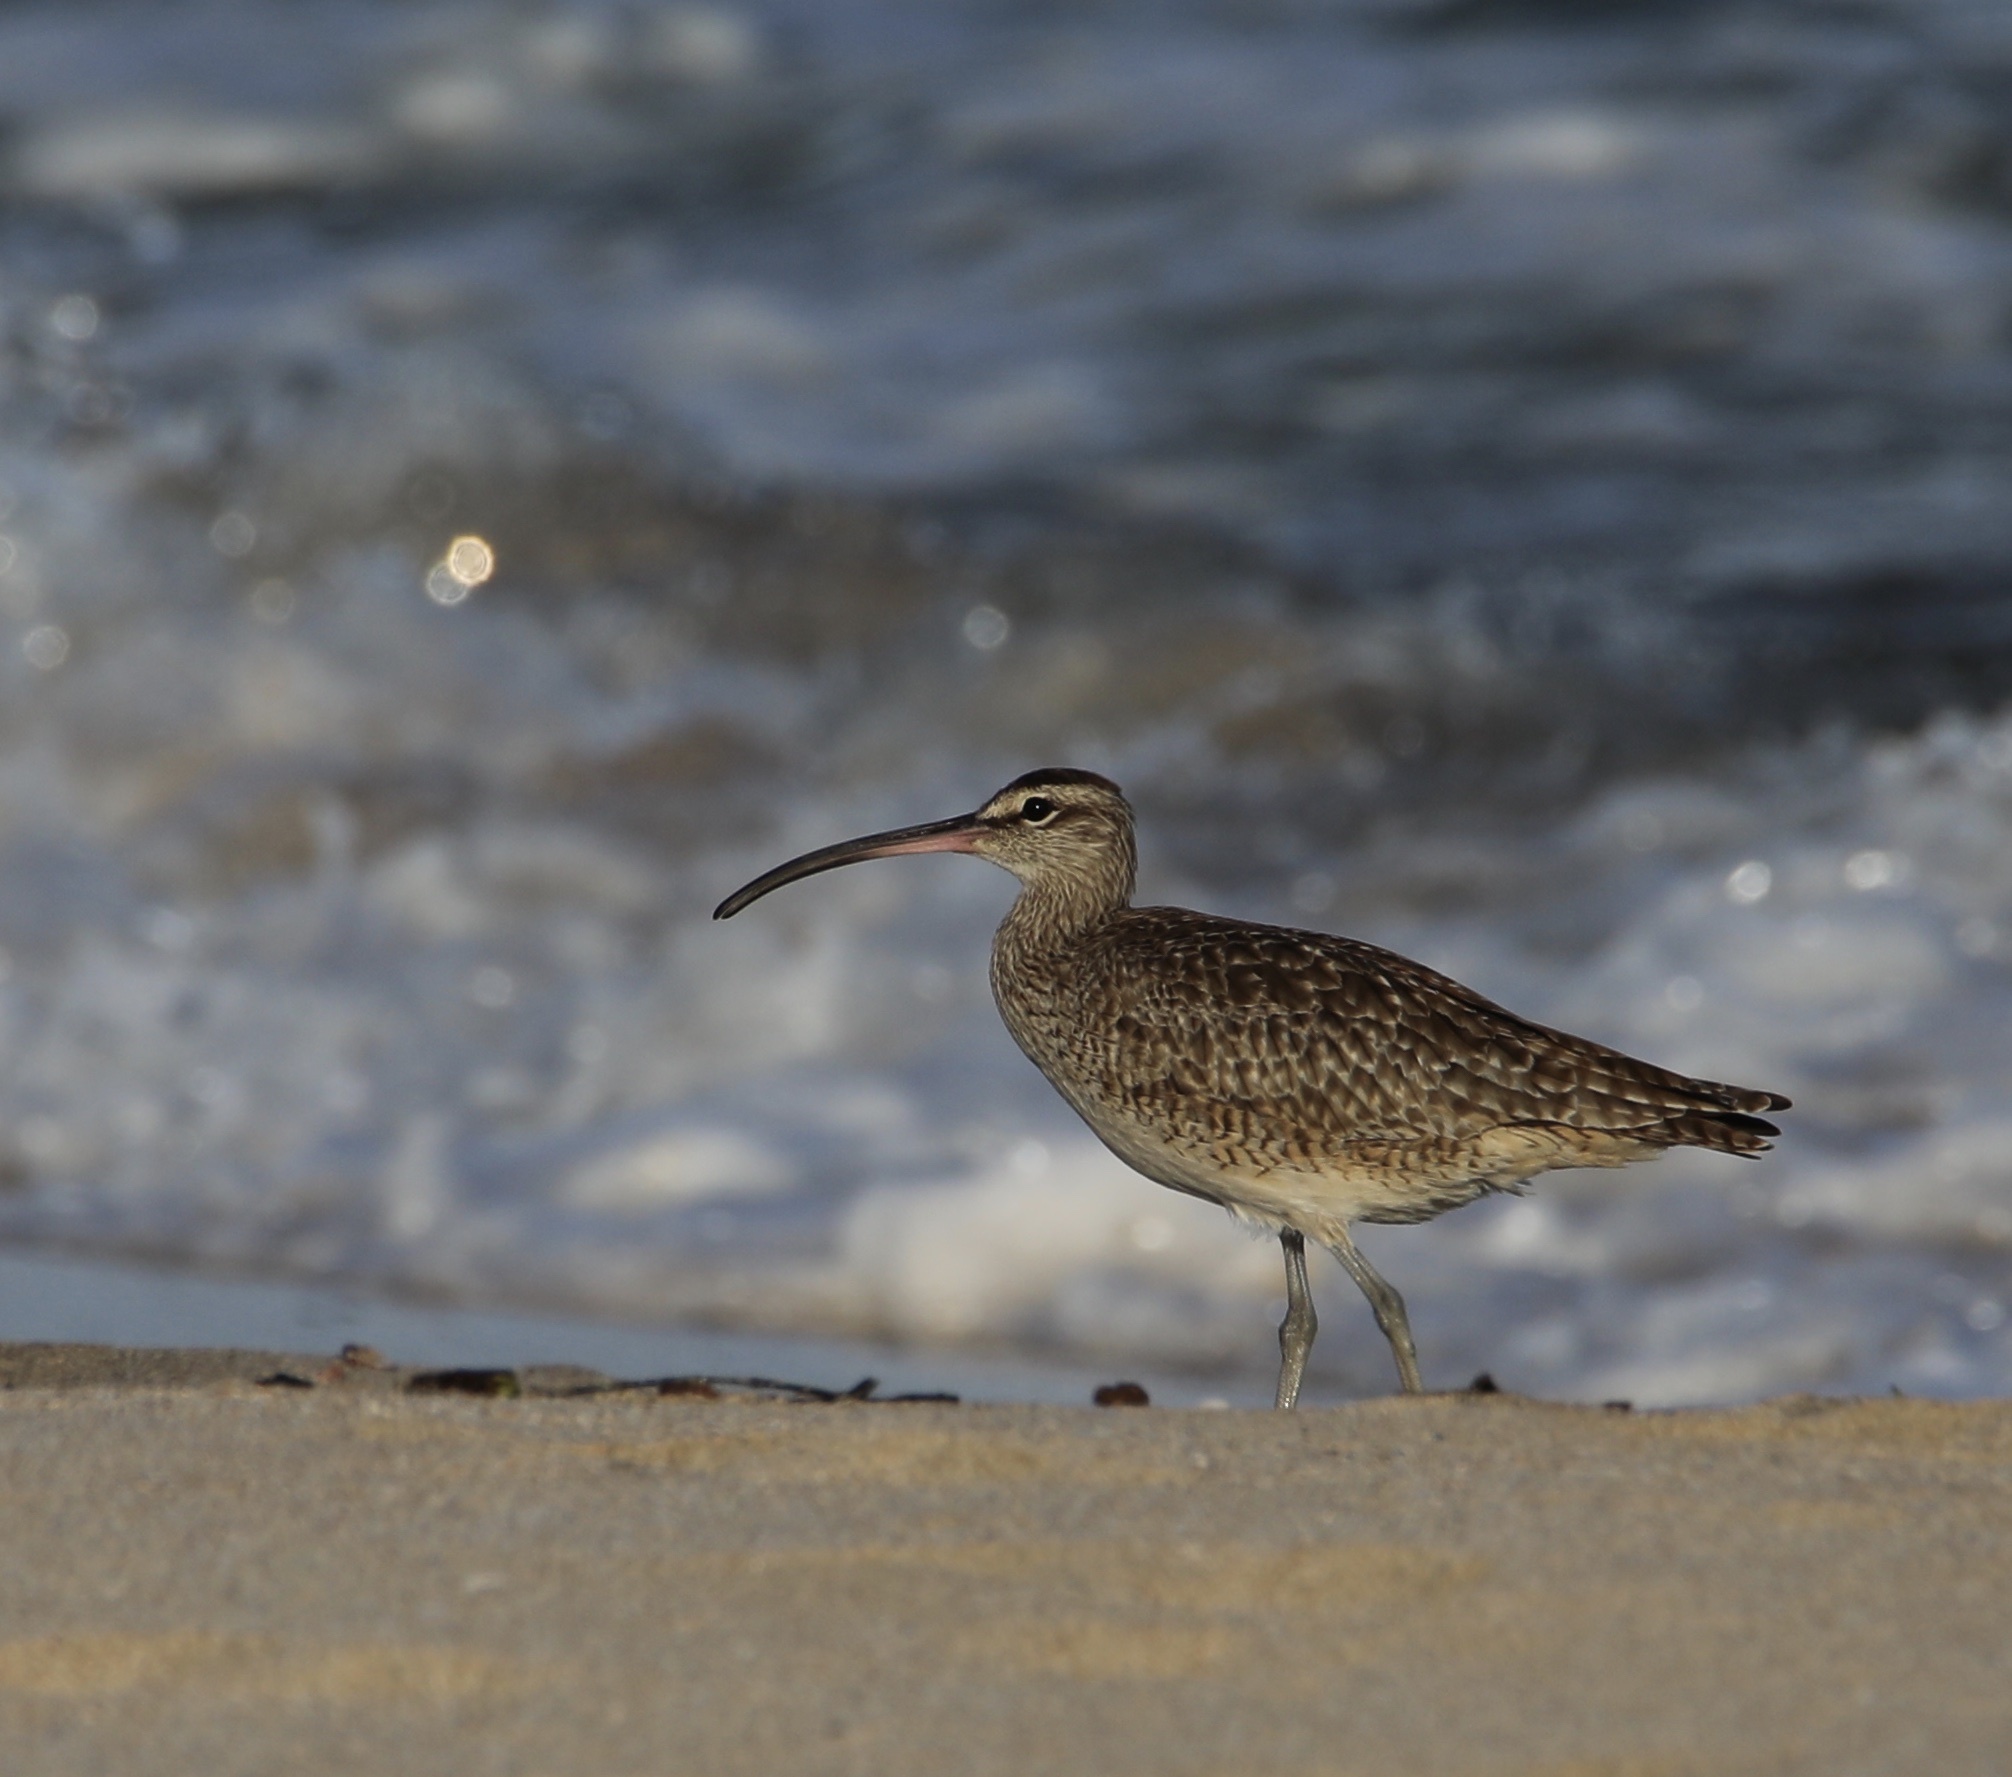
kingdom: Animalia
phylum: Chordata
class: Aves
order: Charadriiformes
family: Scolopacidae
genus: Numenius
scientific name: Numenius phaeopus
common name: Whimbrel
